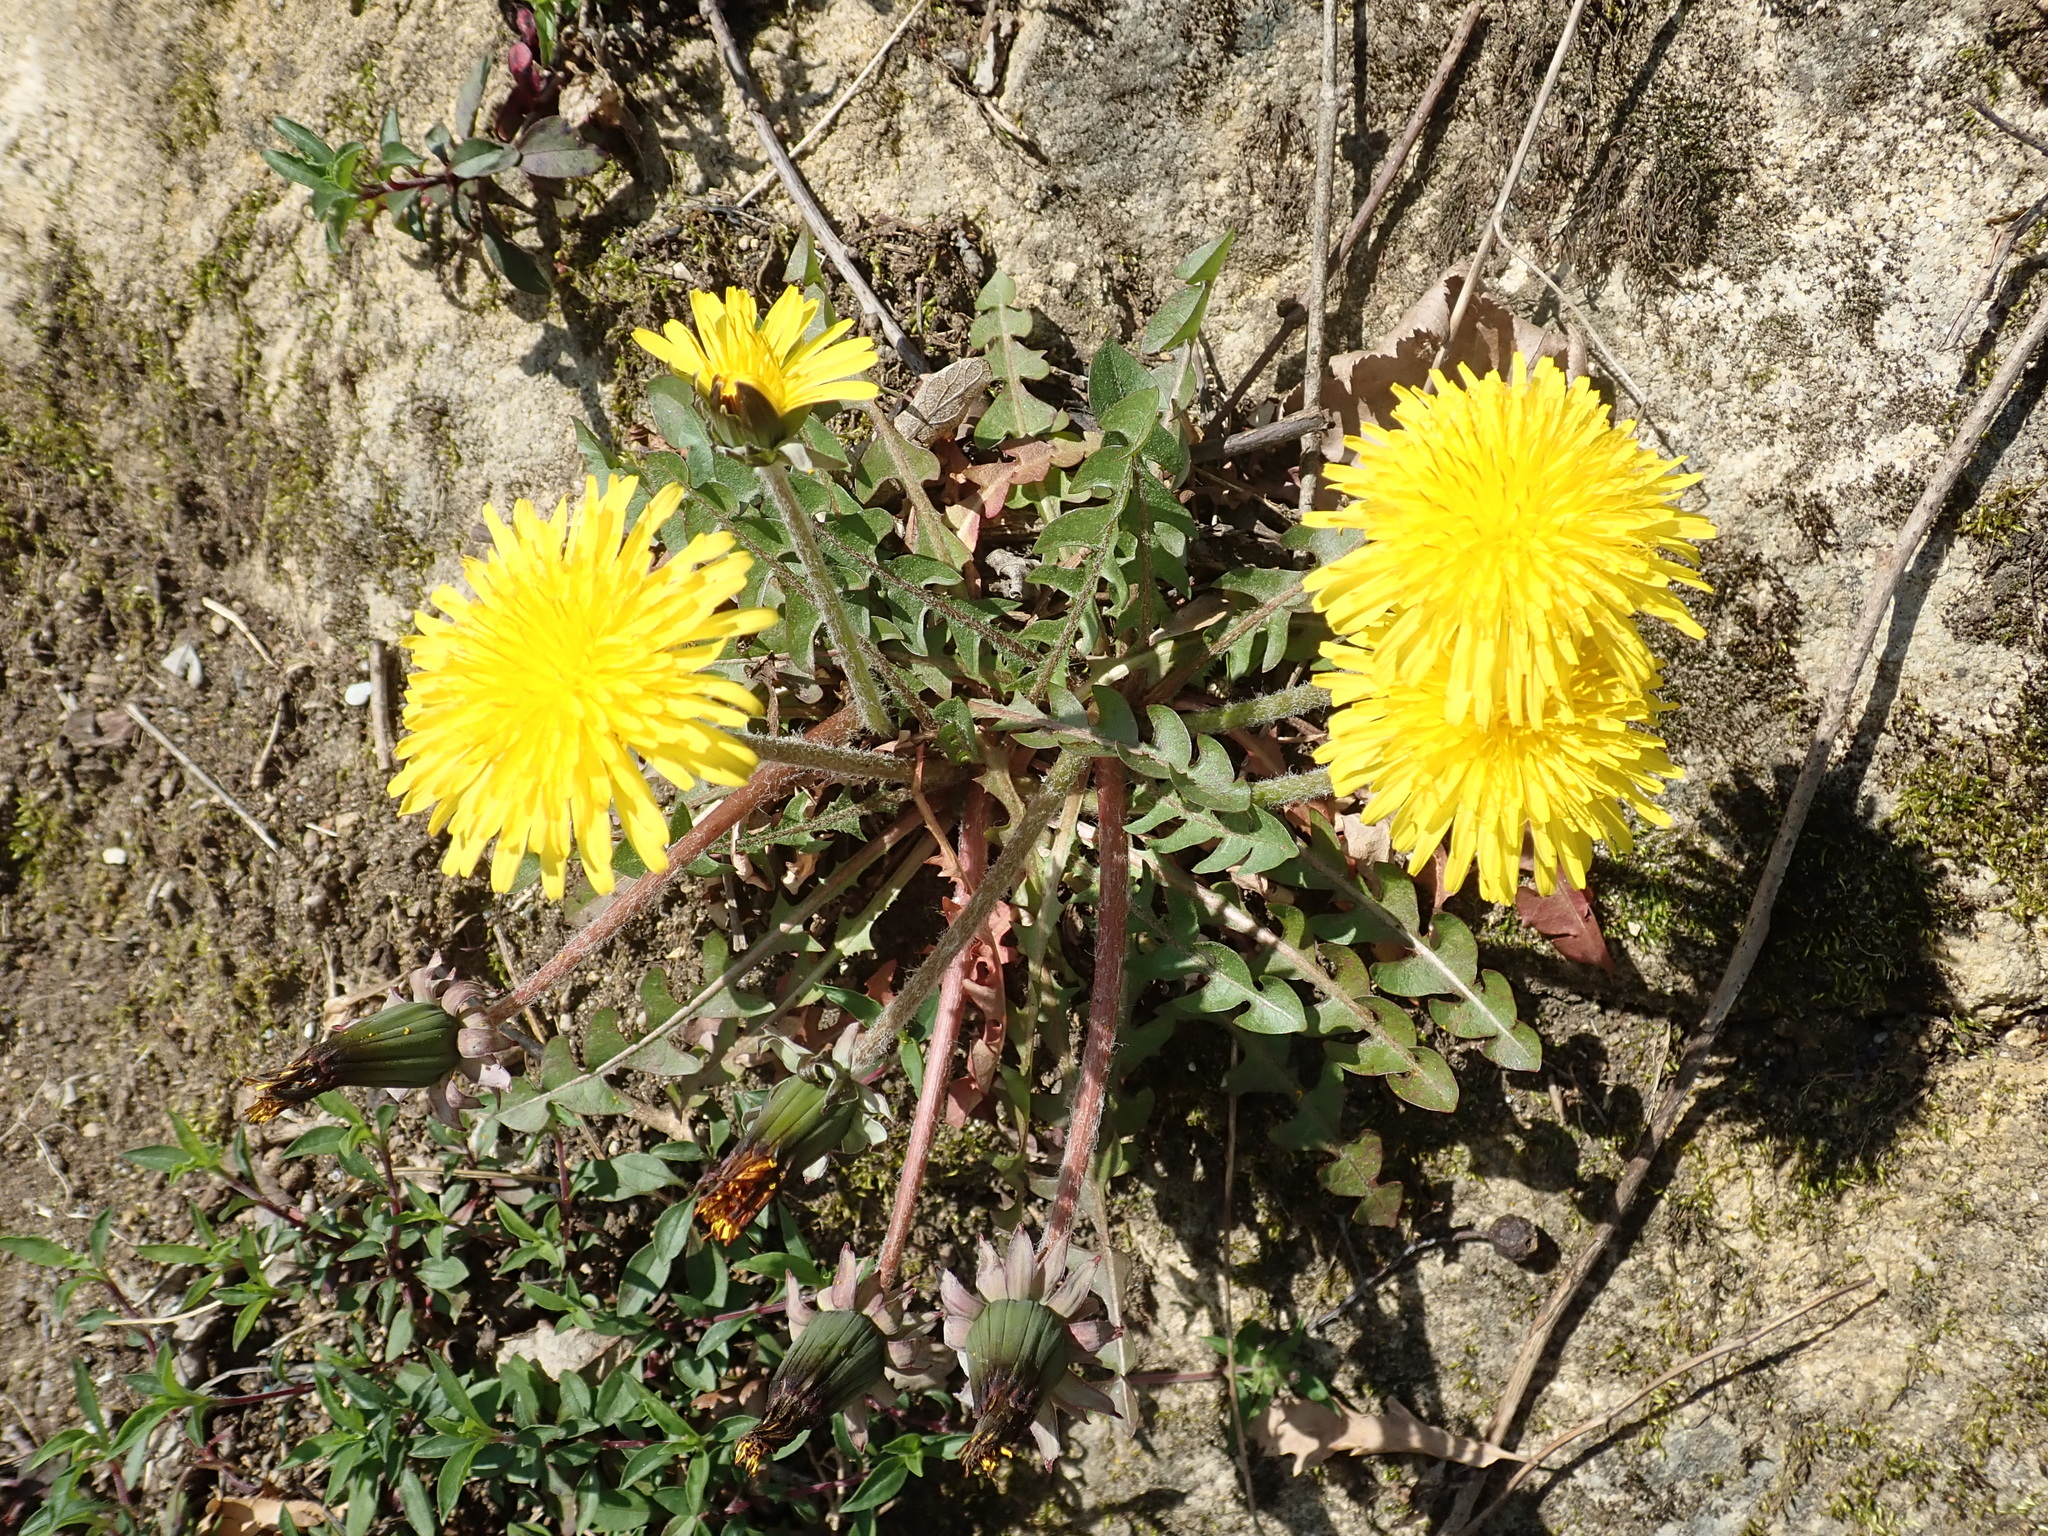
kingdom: Plantae
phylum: Tracheophyta
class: Magnoliopsida
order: Asterales
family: Asteraceae
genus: Taraxacum
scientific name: Taraxacum officinale
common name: Common dandelion
